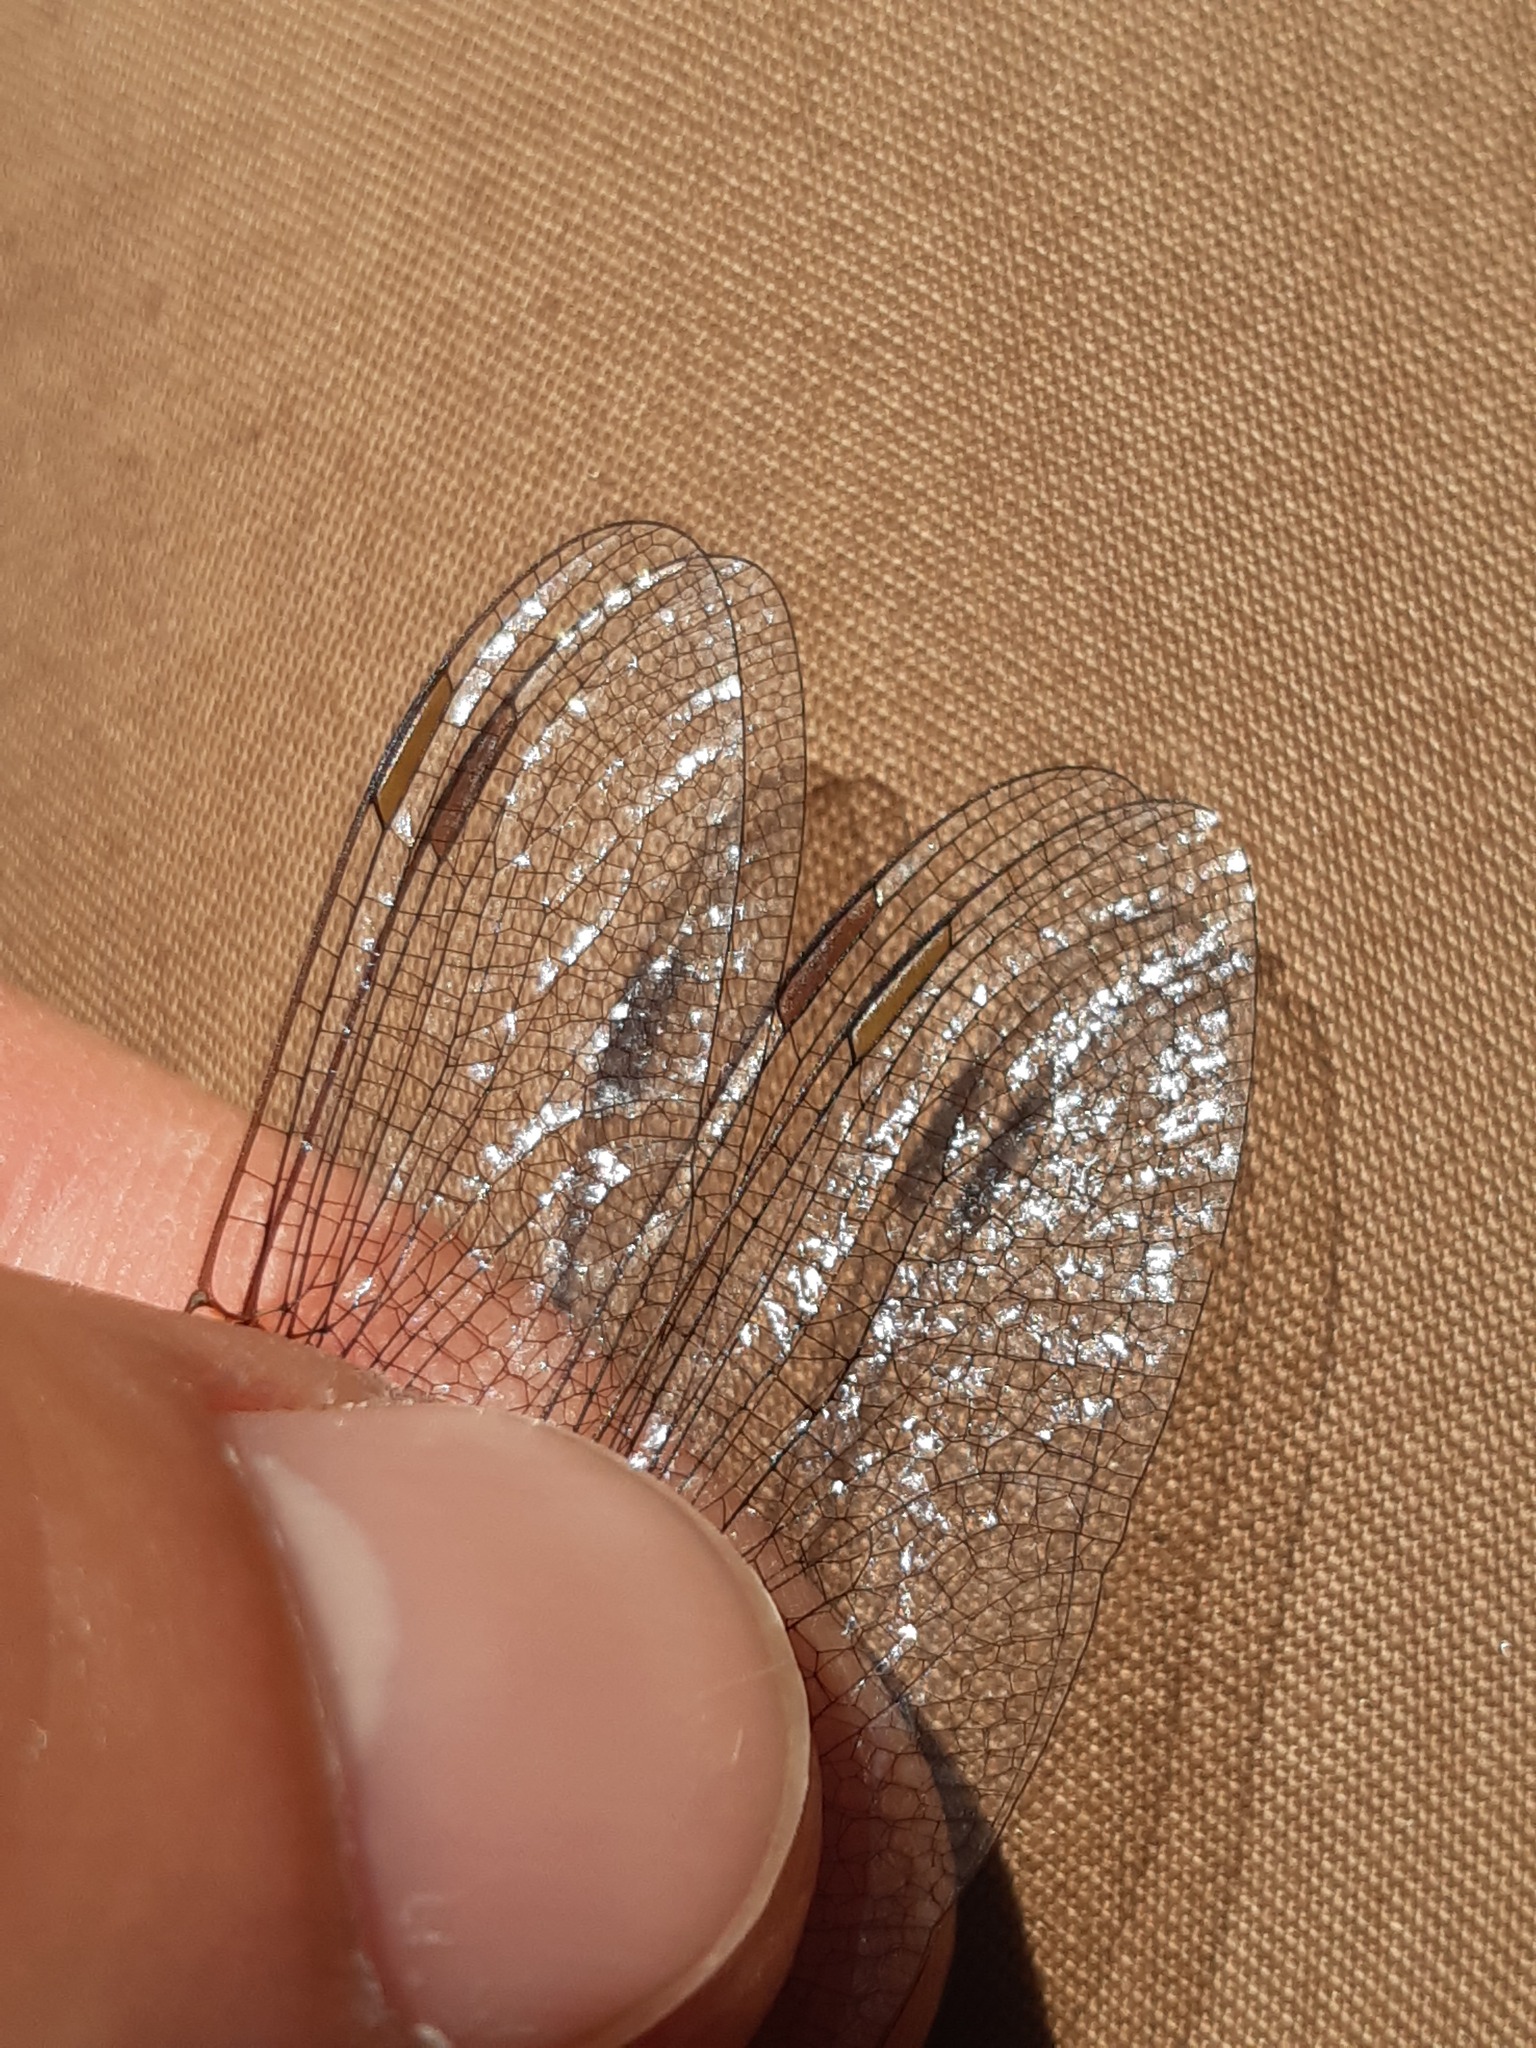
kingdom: Animalia
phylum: Arthropoda
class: Insecta
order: Odonata
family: Aeshnidae
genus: Aeshna
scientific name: Aeshna affinis
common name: Southern migrant hawker
